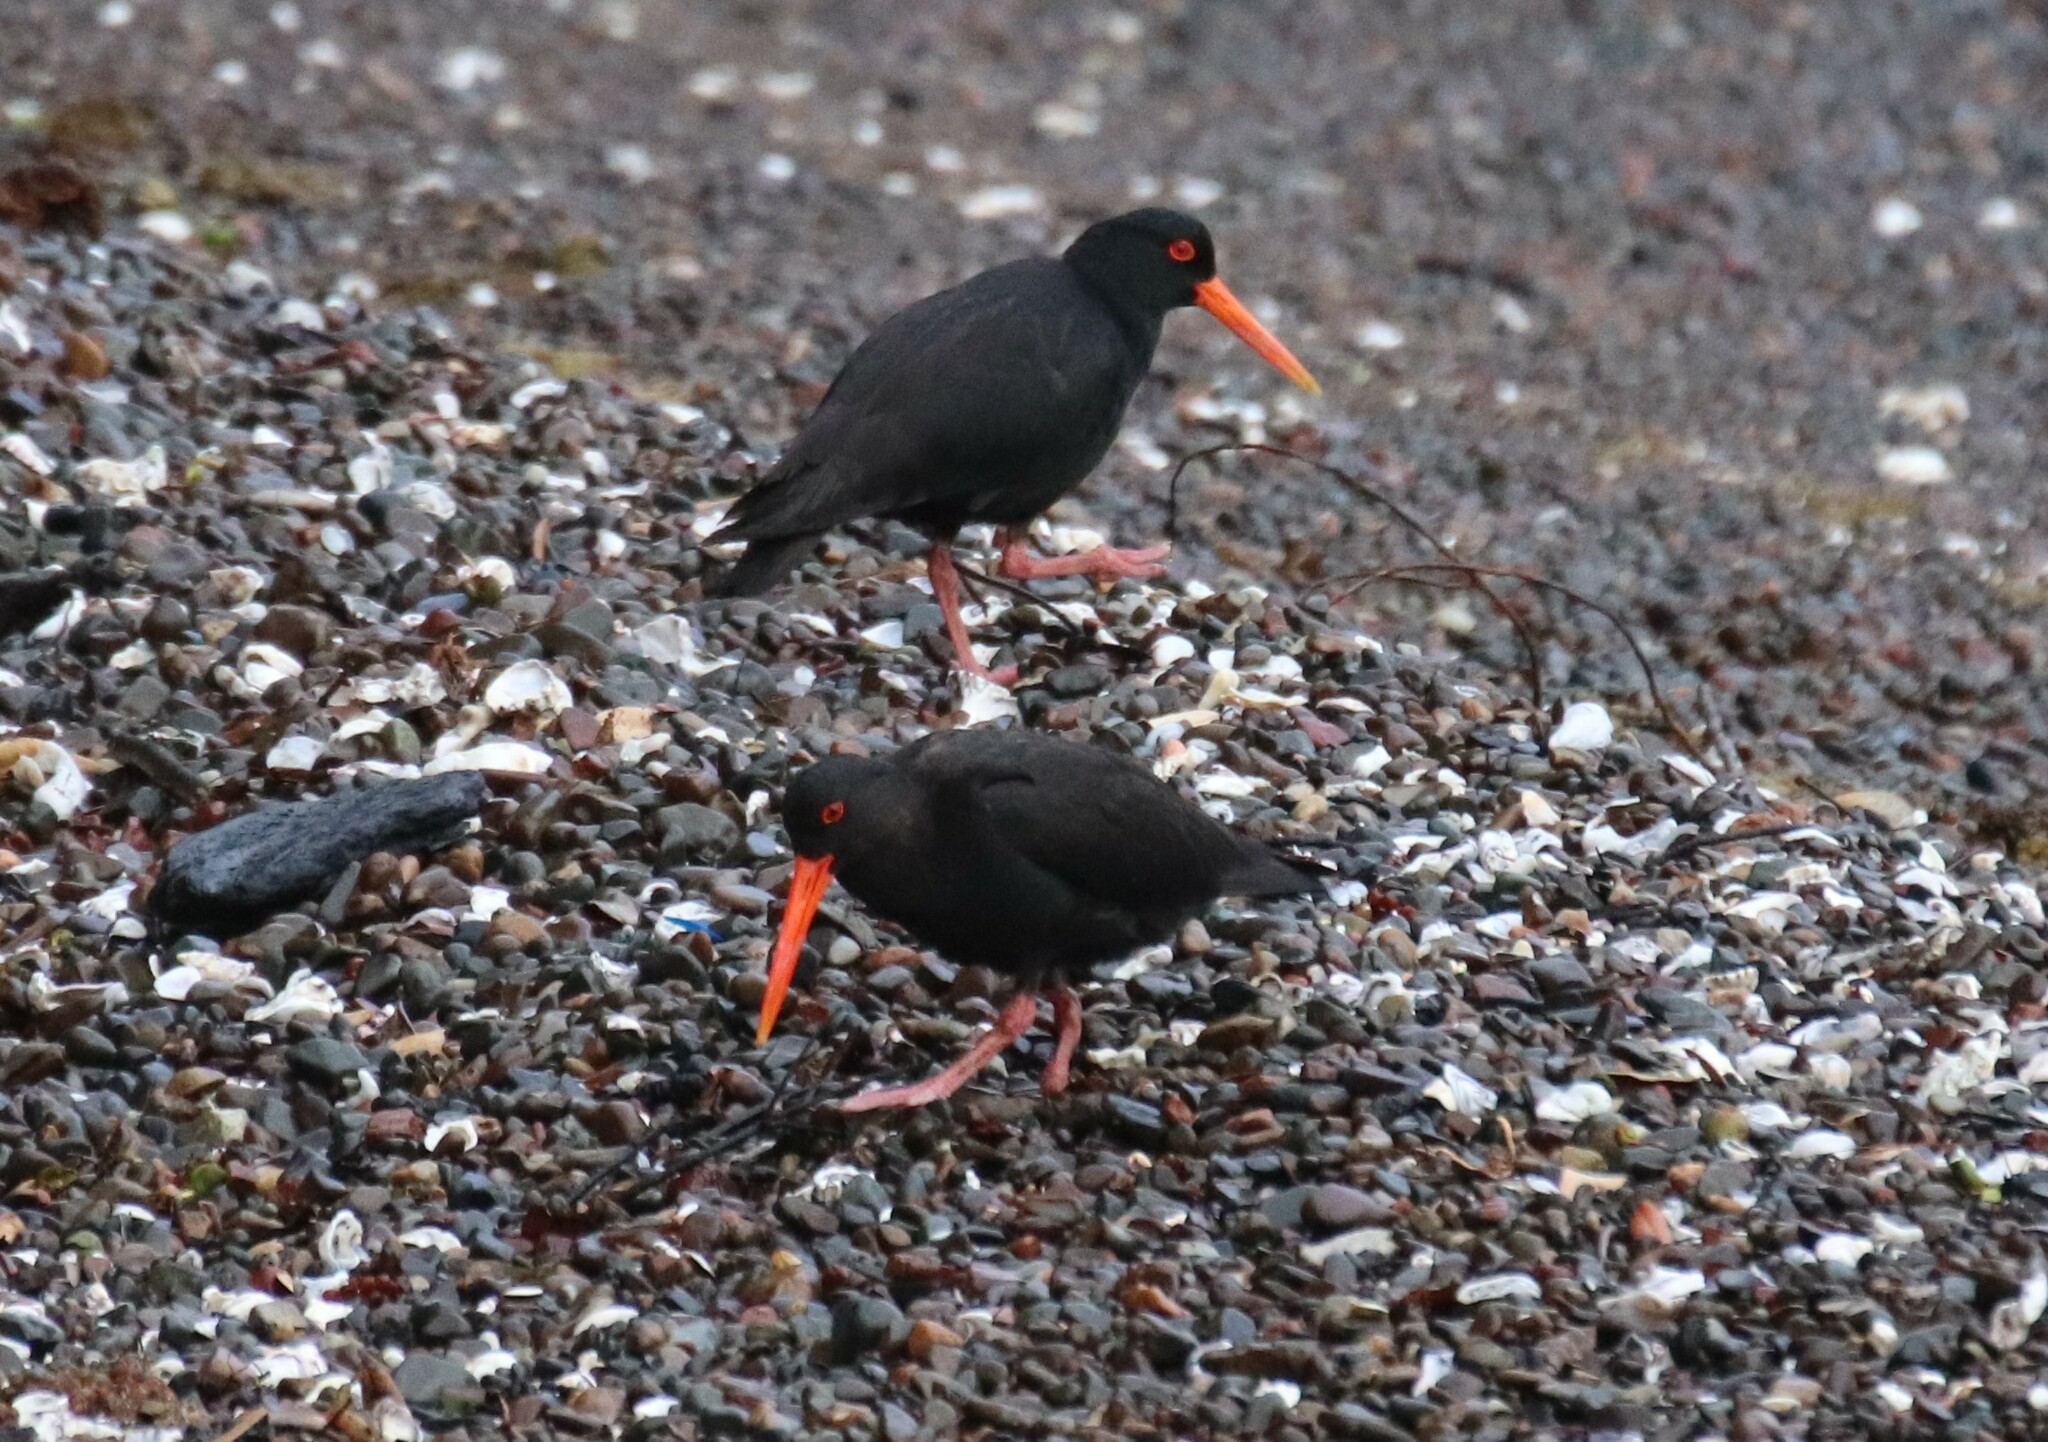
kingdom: Animalia
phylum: Chordata
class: Aves
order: Charadriiformes
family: Haematopodidae
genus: Haematopus
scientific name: Haematopus unicolor
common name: Variable oystercatcher
